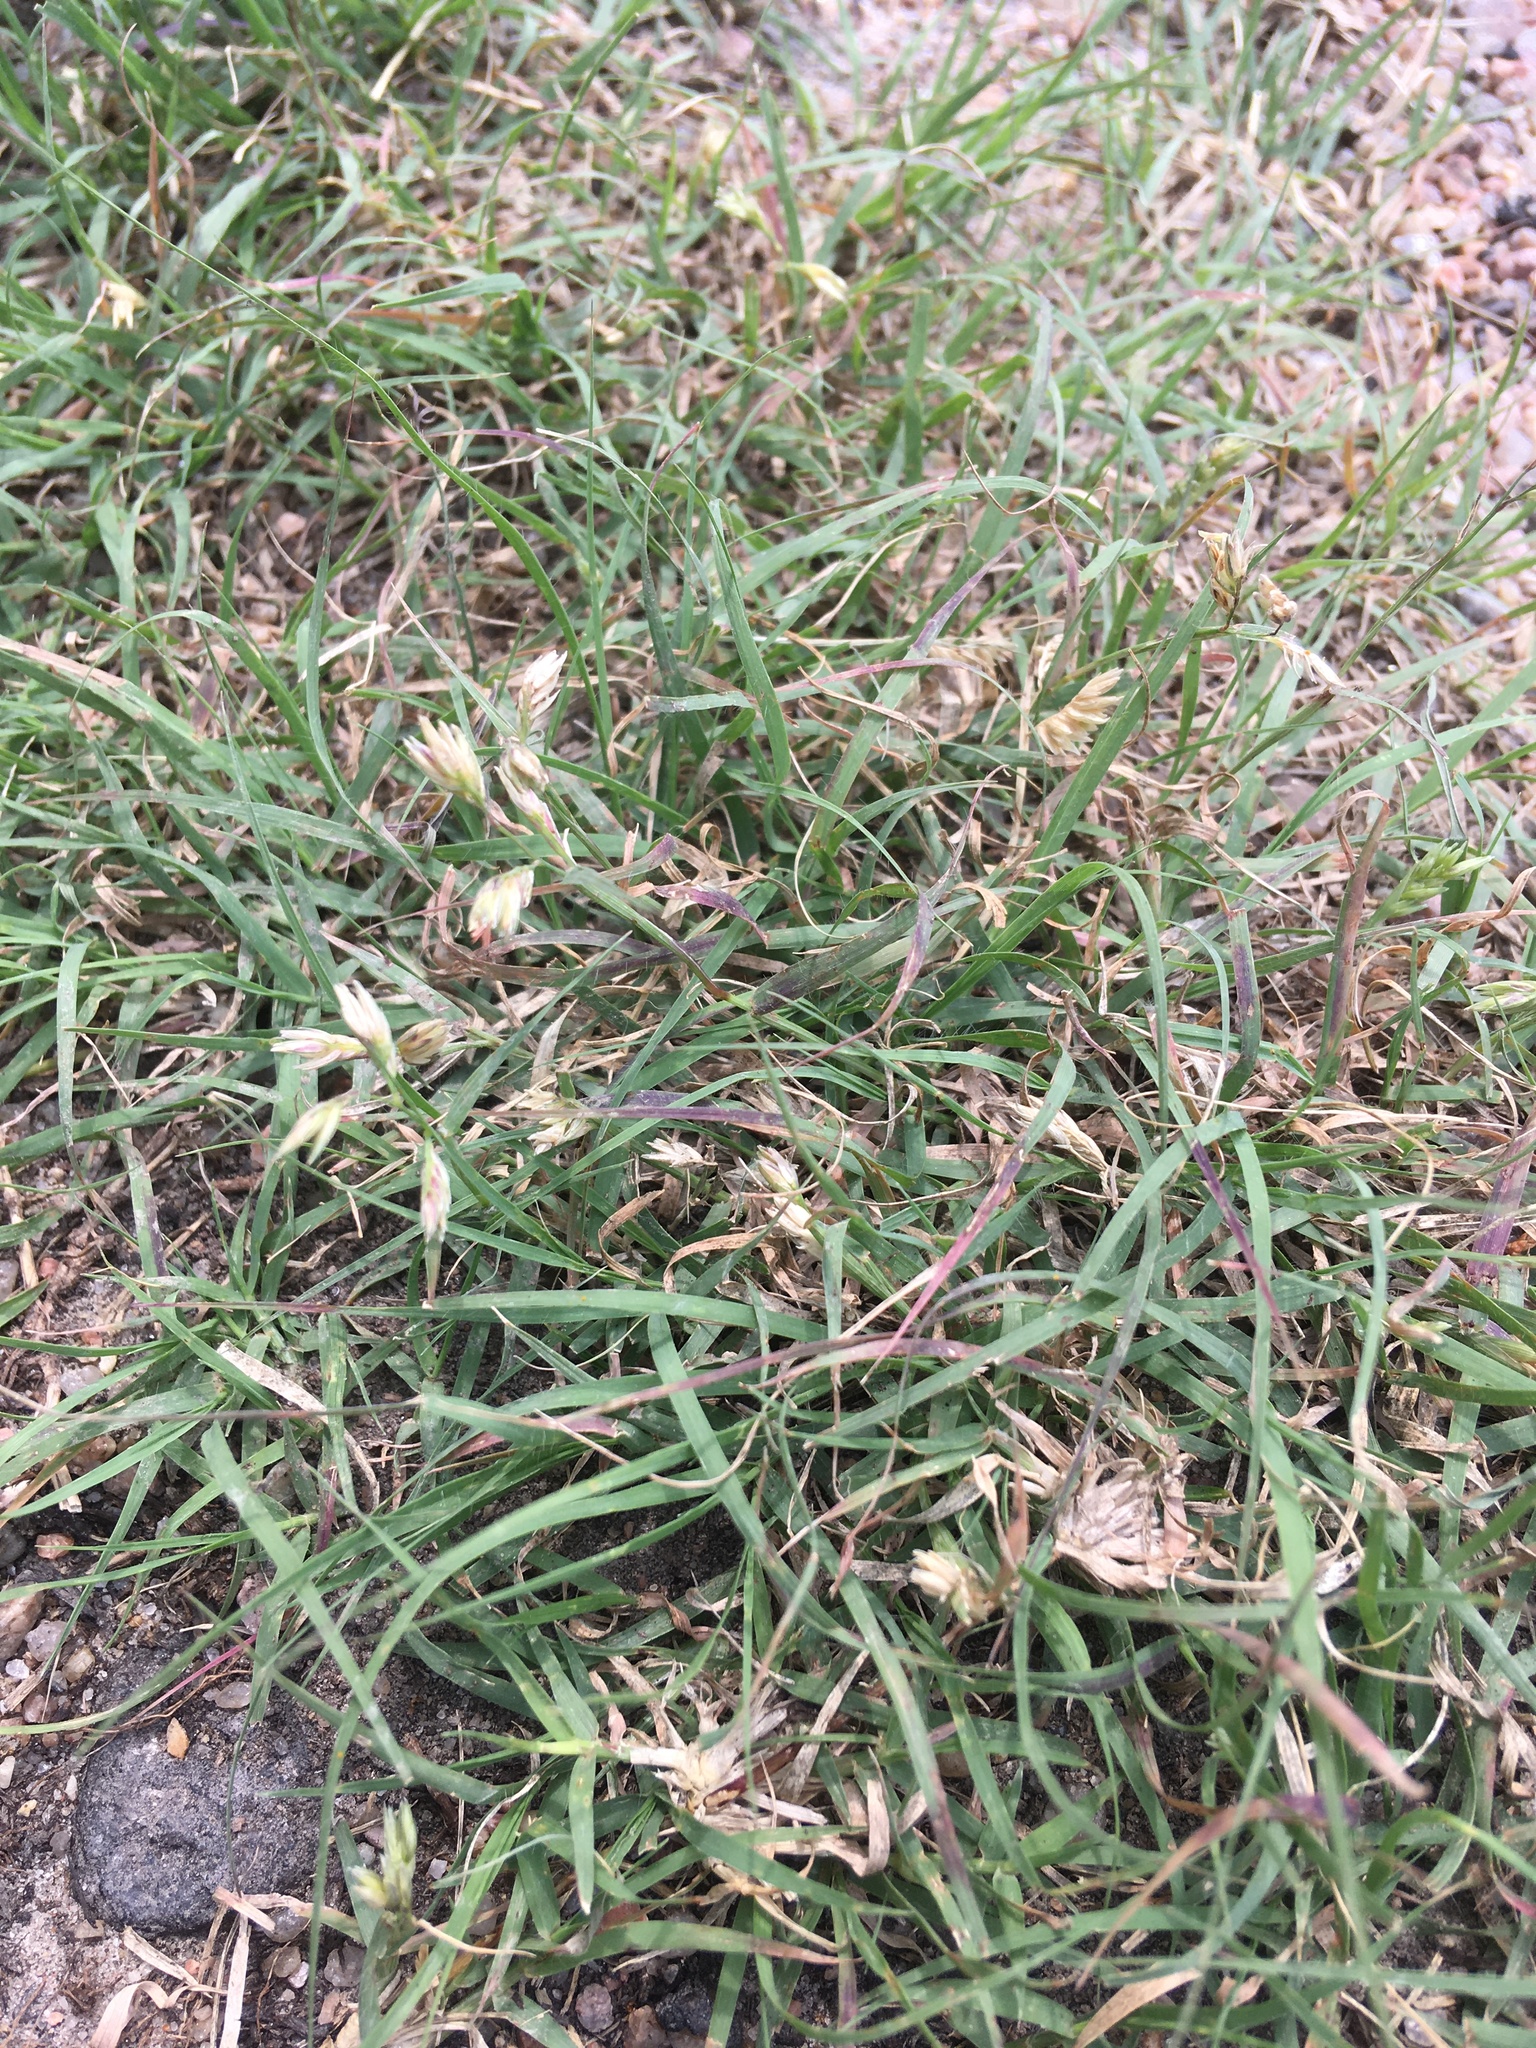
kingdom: Plantae
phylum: Tracheophyta
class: Liliopsida
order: Poales
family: Poaceae
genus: Bouteloua
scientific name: Bouteloua dactyloides
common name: Buffalo grass
